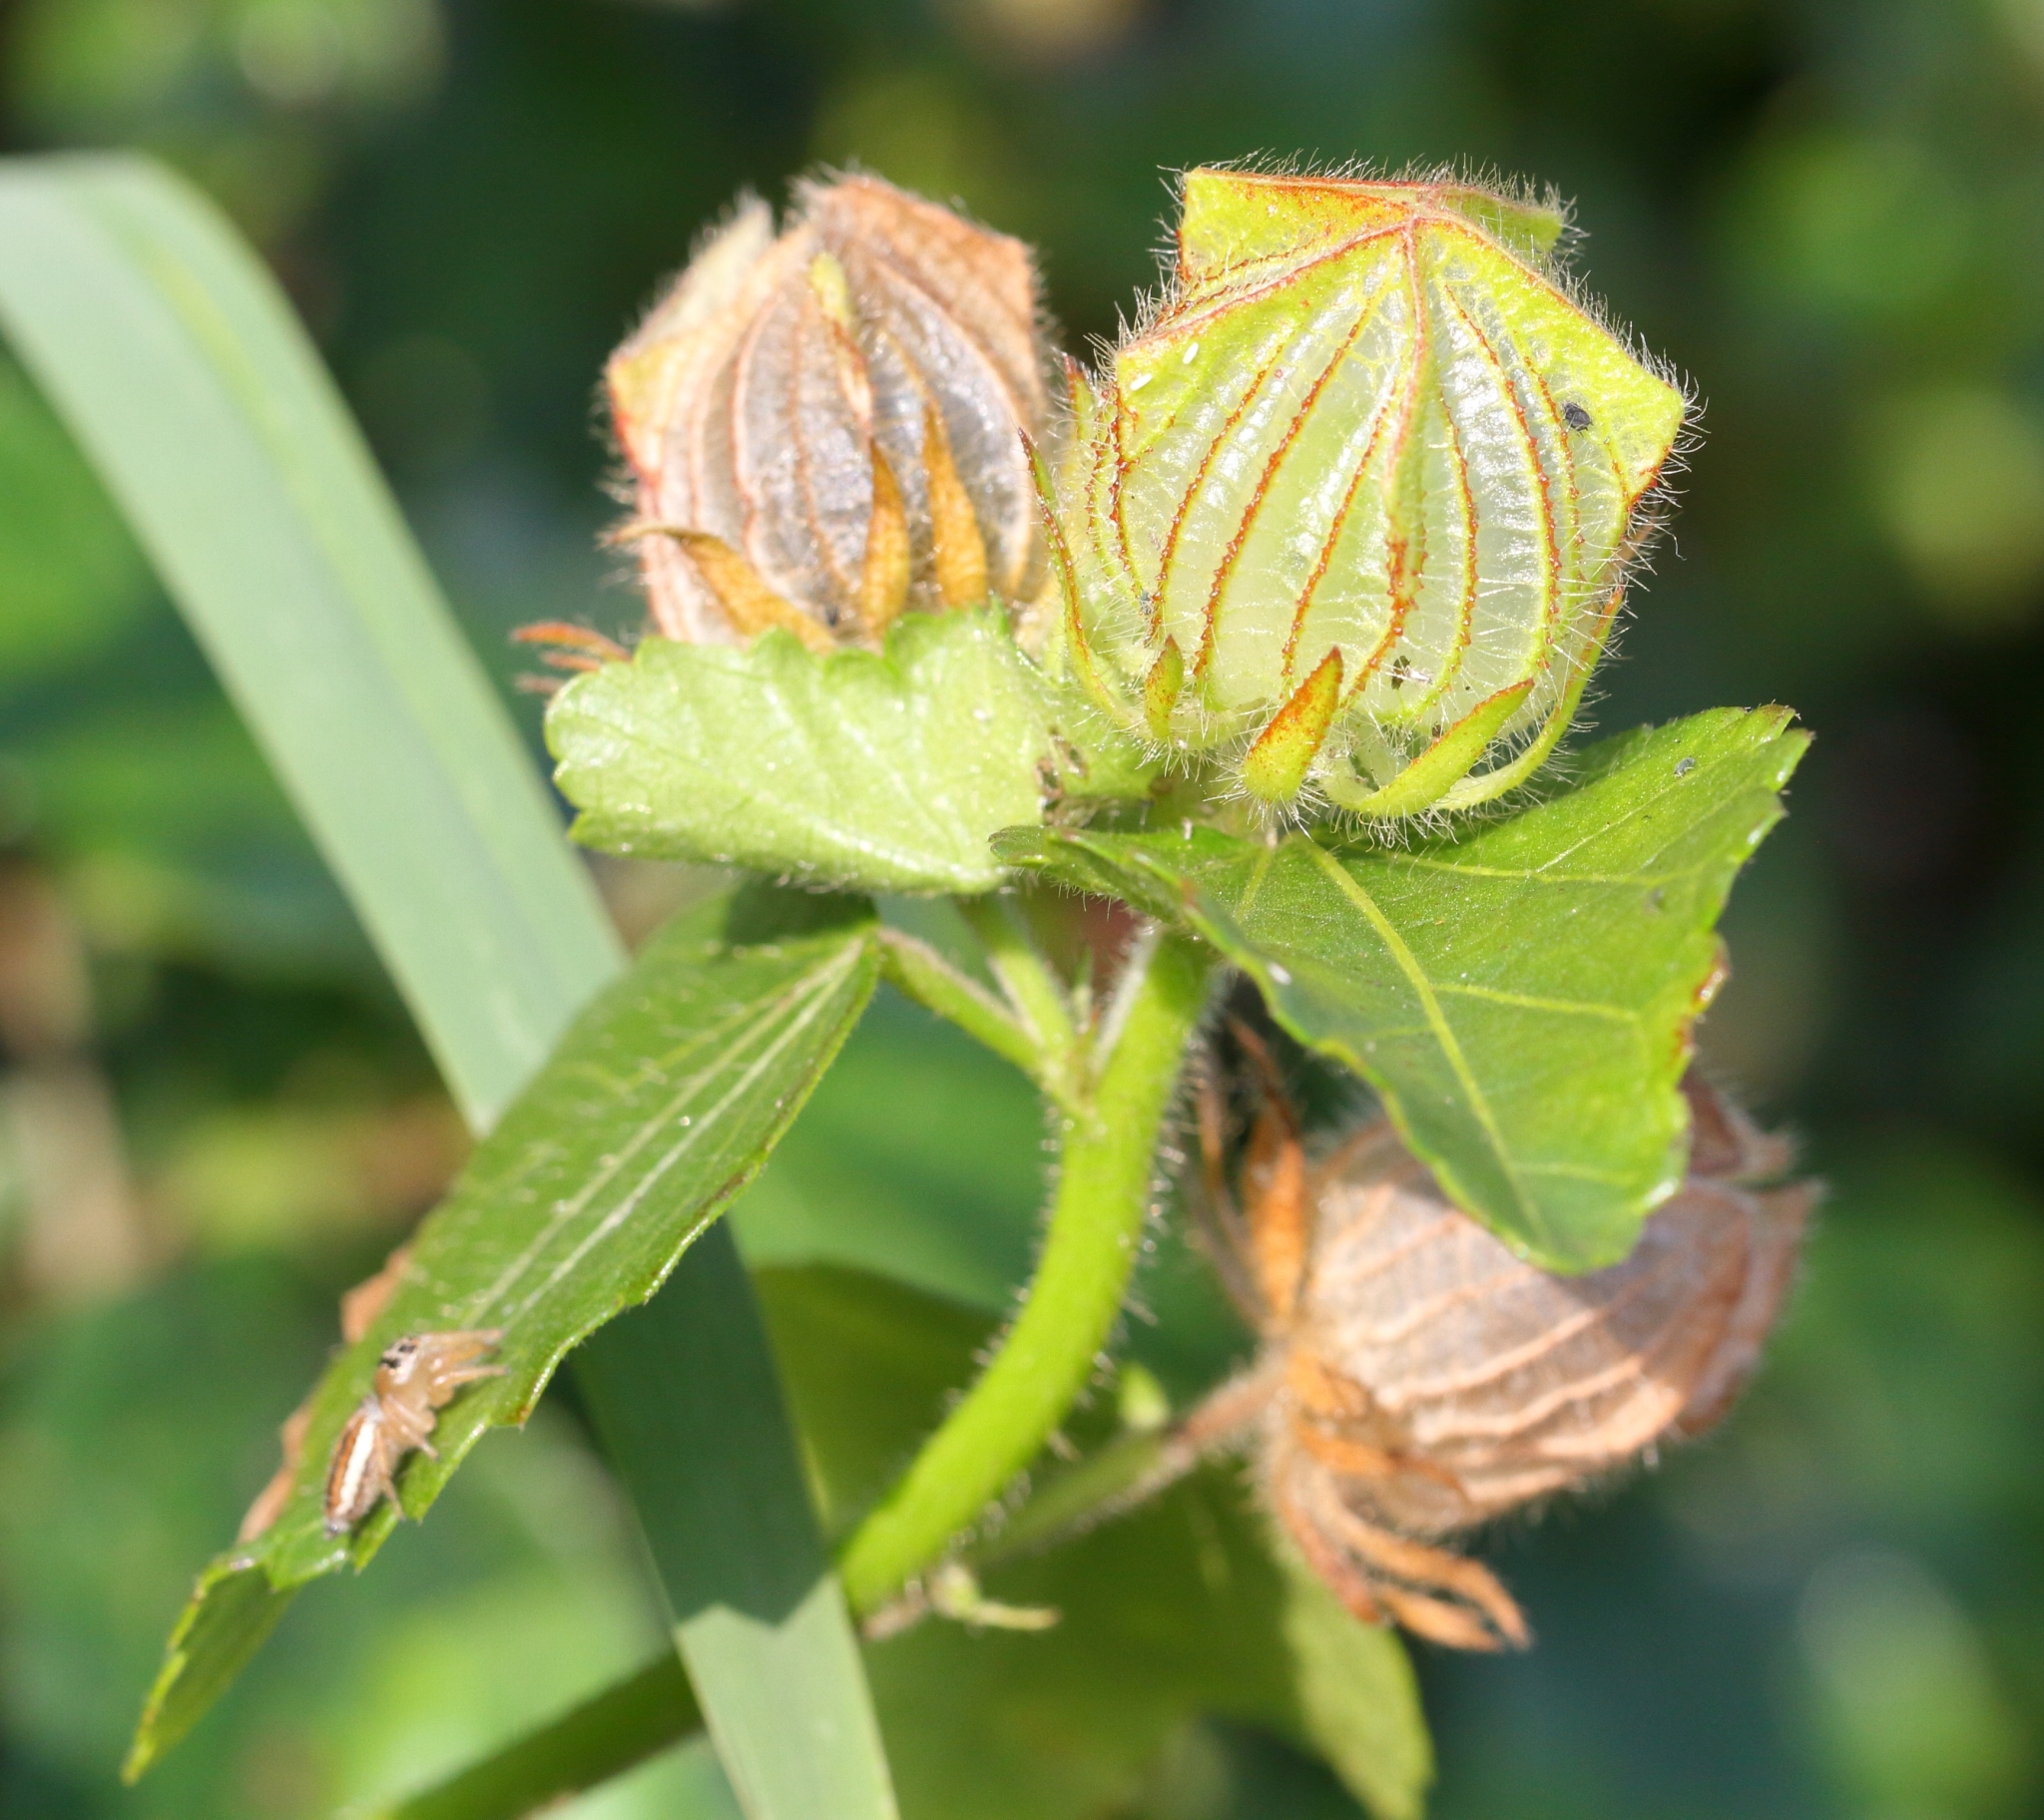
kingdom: Plantae
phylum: Tracheophyta
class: Magnoliopsida
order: Malvales
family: Malvaceae
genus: Hibiscus
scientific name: Hibiscus trionum
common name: Bladder ketmia
